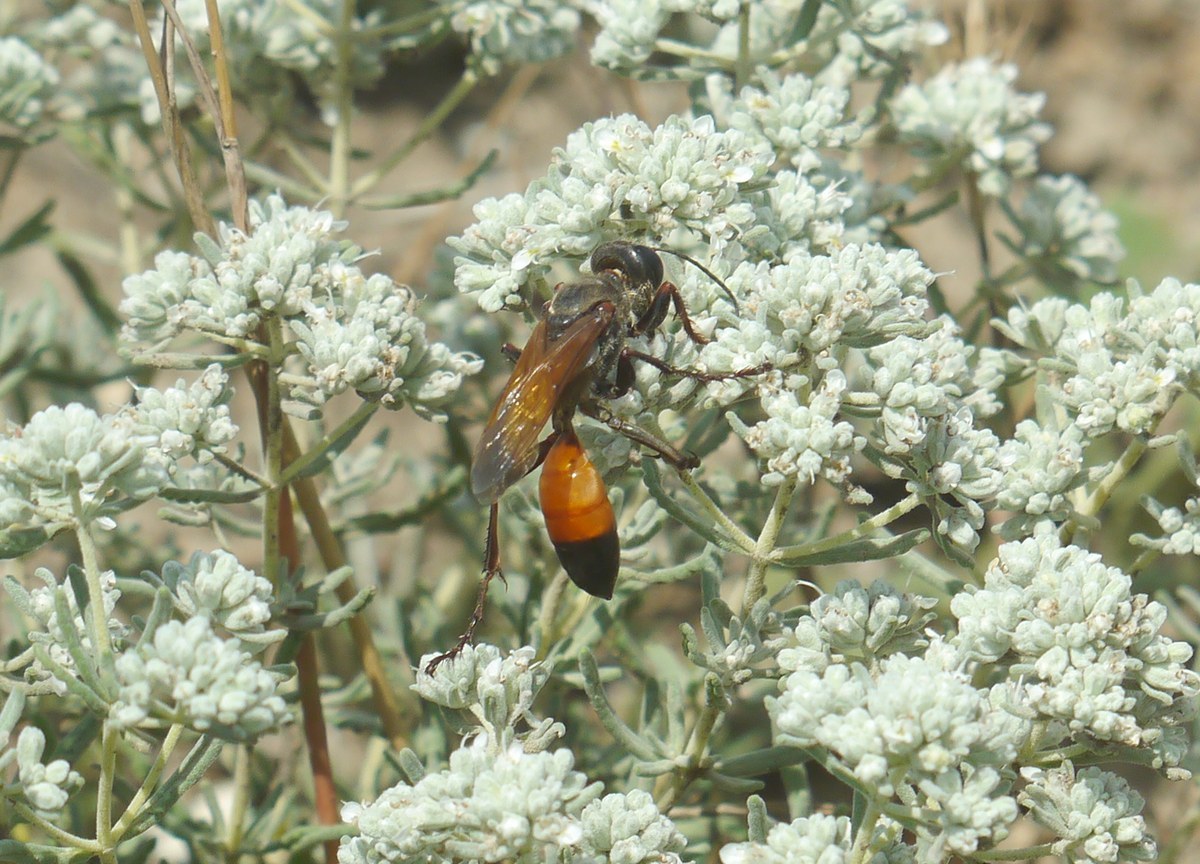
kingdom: Animalia
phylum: Arthropoda
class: Insecta
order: Hymenoptera
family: Sphecidae
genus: Sphex
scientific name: Sphex flavipennis
